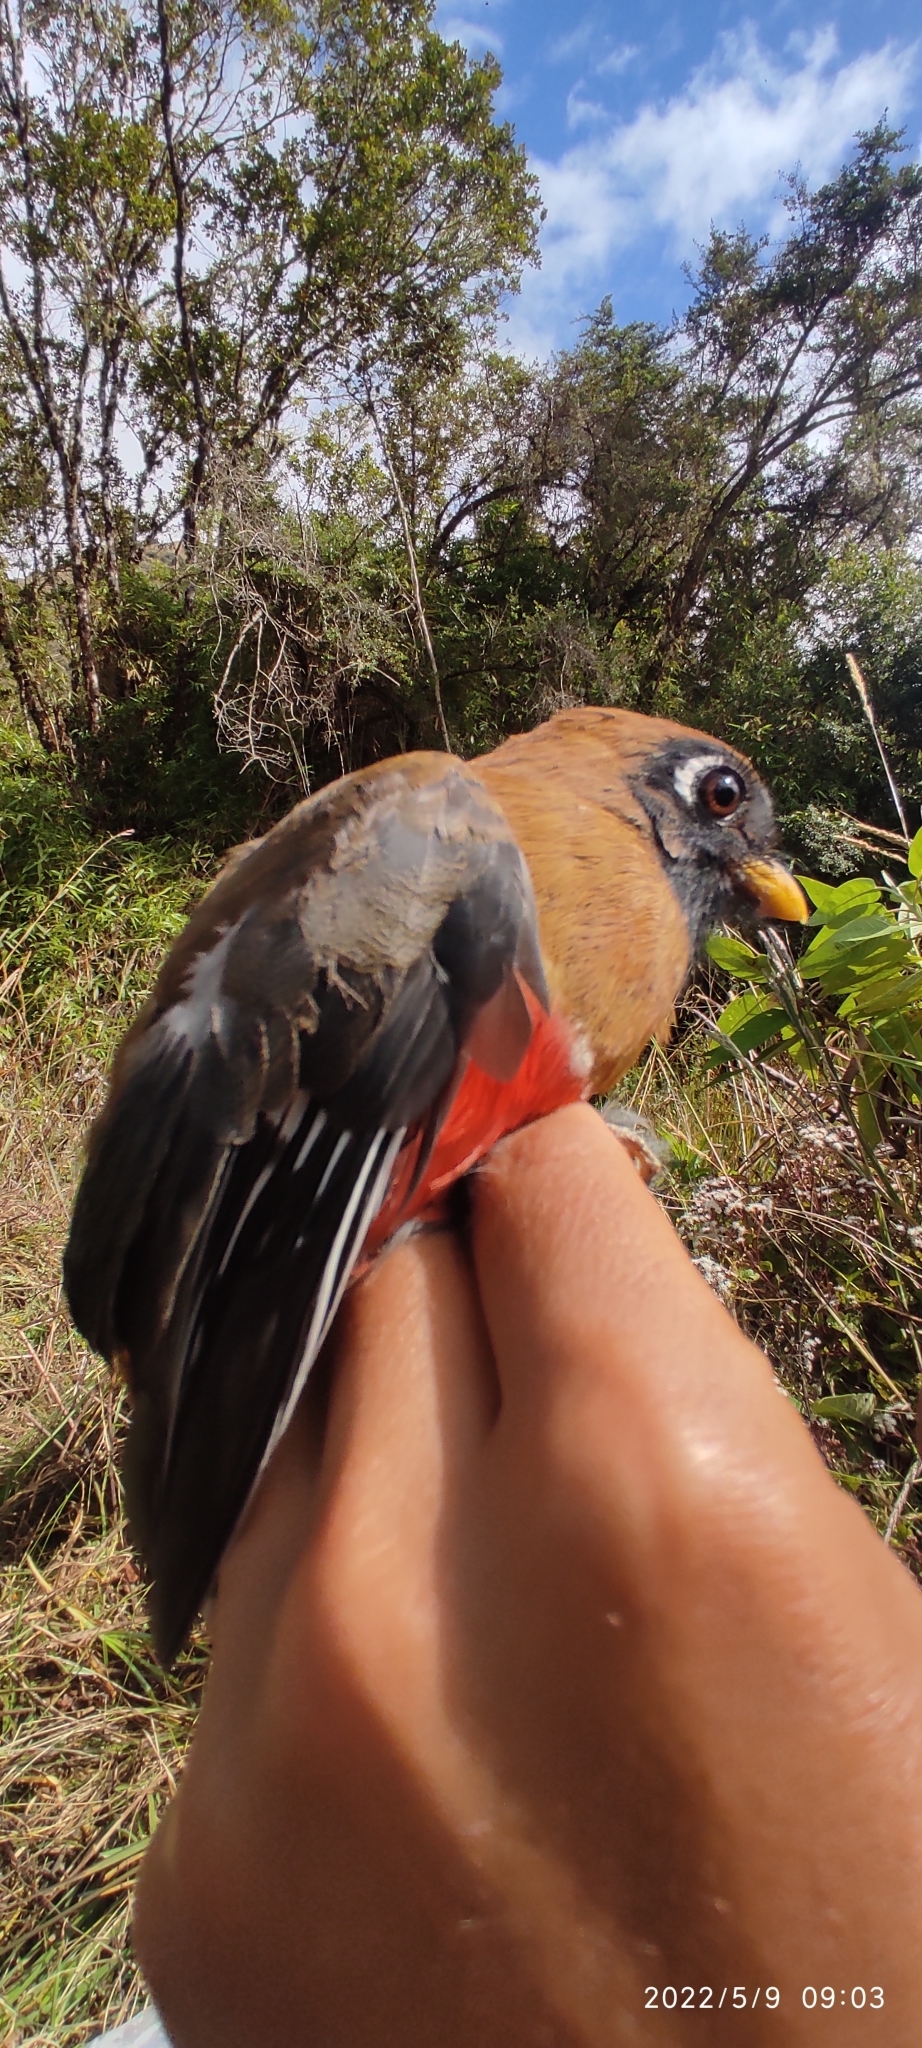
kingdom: Animalia
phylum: Chordata
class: Aves
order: Trogoniformes
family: Trogonidae
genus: Trogon
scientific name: Trogon personatus
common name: Masked trogon
